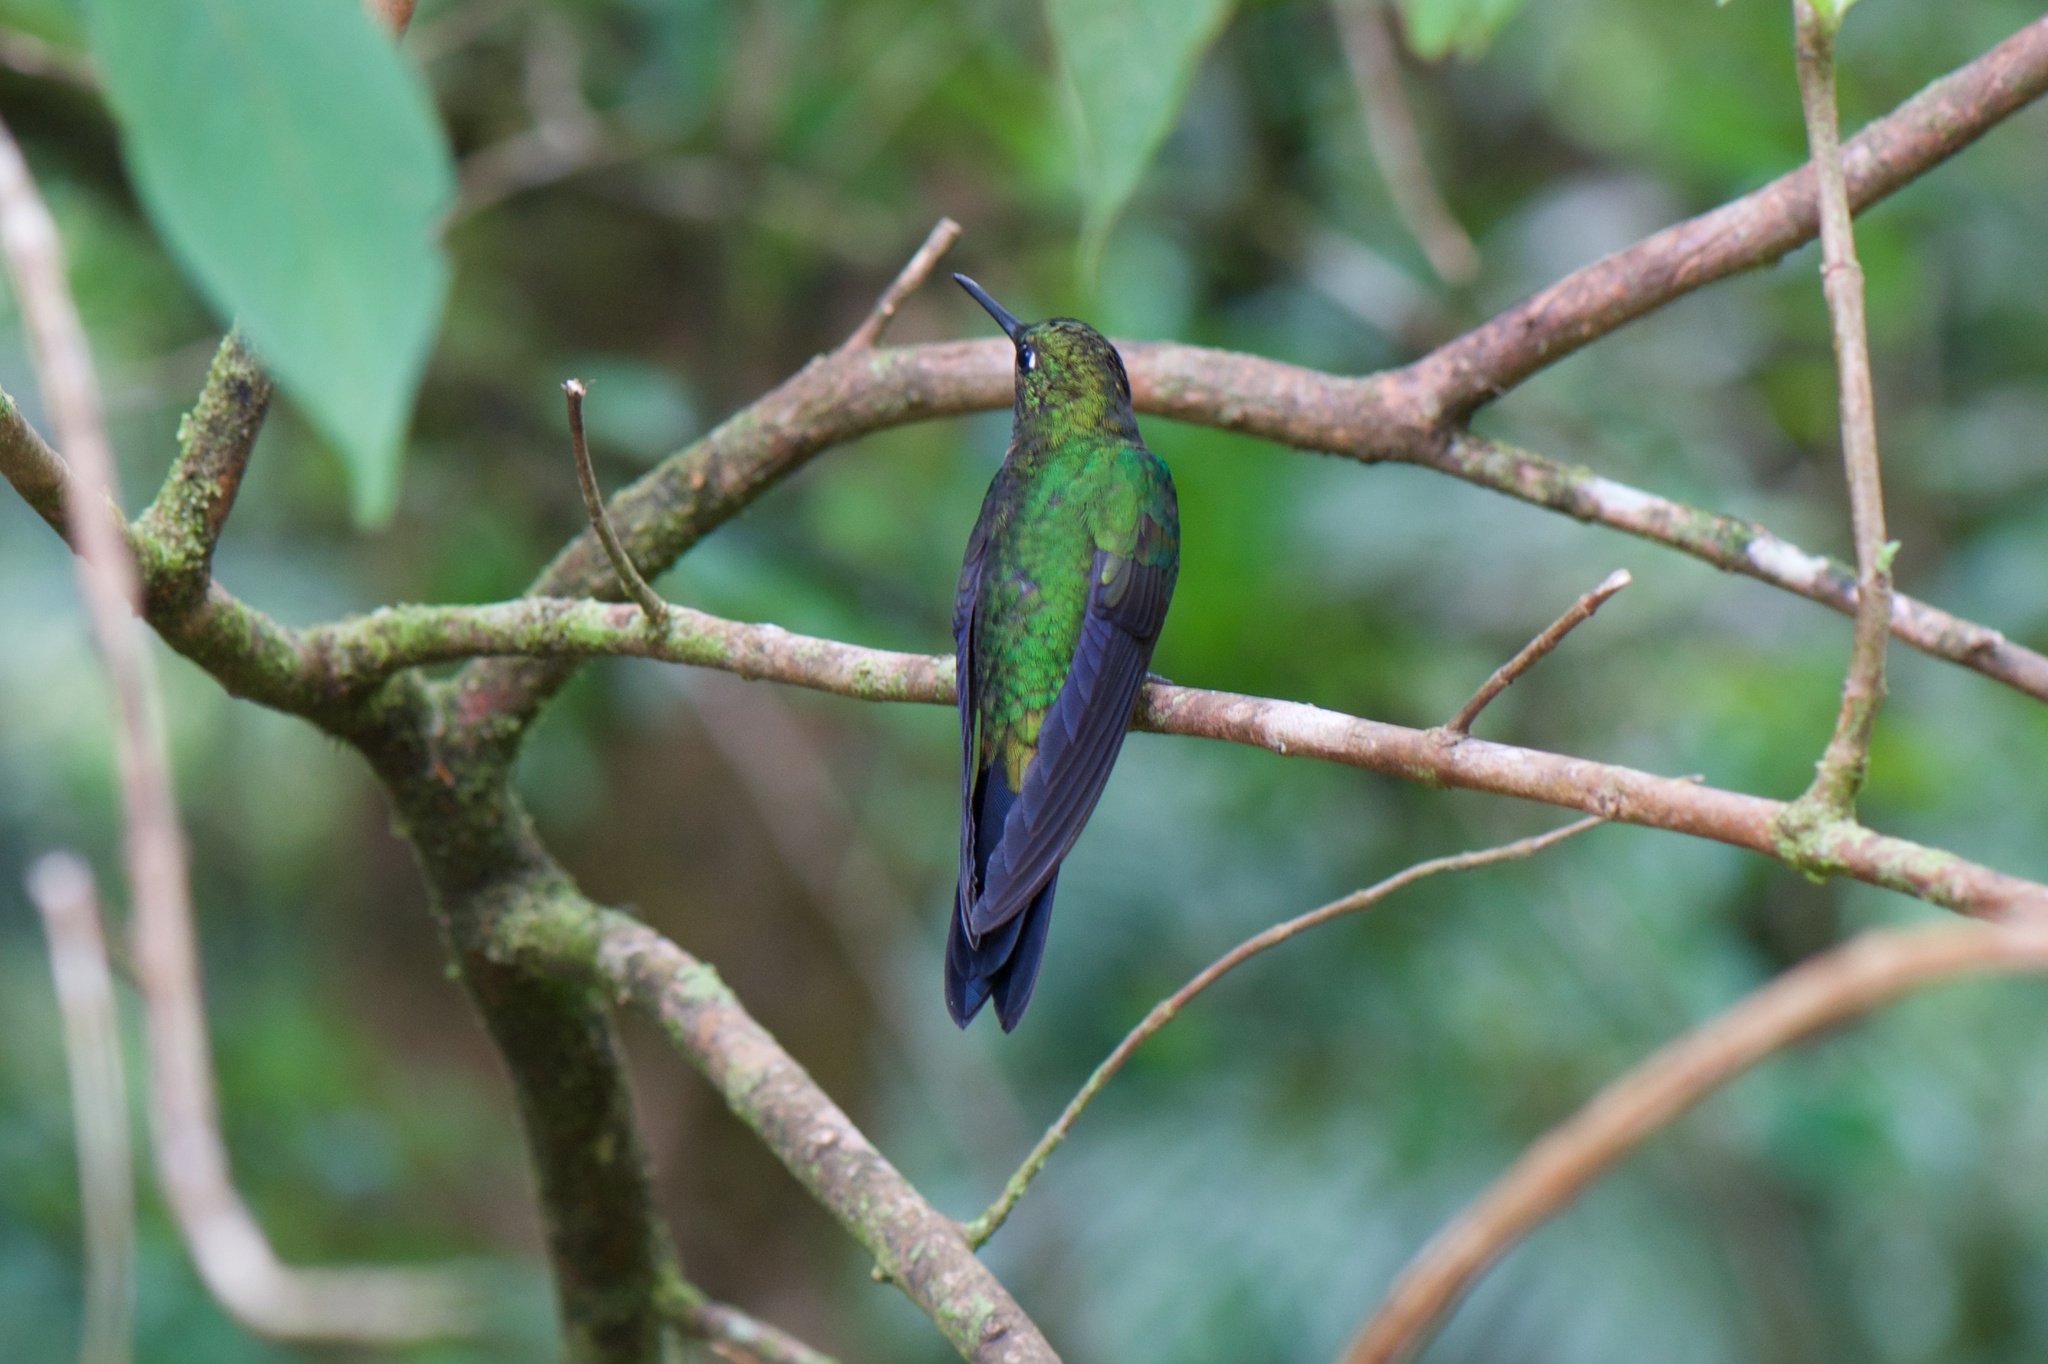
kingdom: Animalia
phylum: Chordata
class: Aves
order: Apodiformes
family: Trochilidae
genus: Heliodoxa
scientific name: Heliodoxa jacula
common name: Green-crowned brilliant
